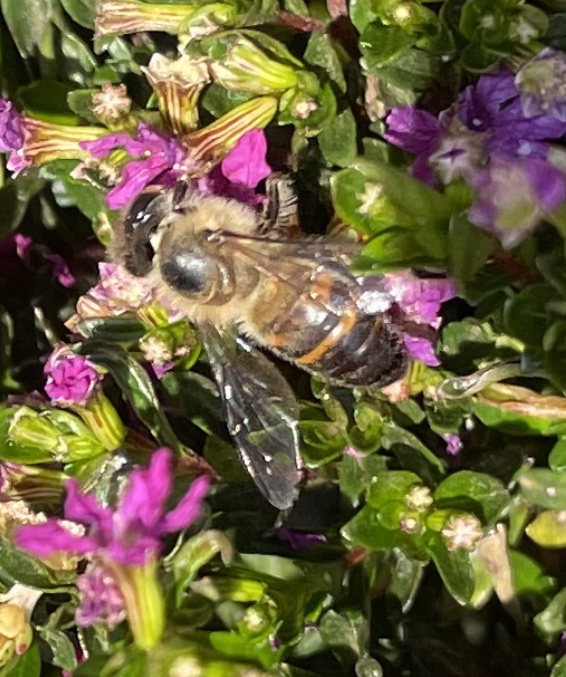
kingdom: Animalia
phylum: Arthropoda
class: Insecta
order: Hymenoptera
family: Apidae
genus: Apis
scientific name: Apis mellifera
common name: Honey bee
